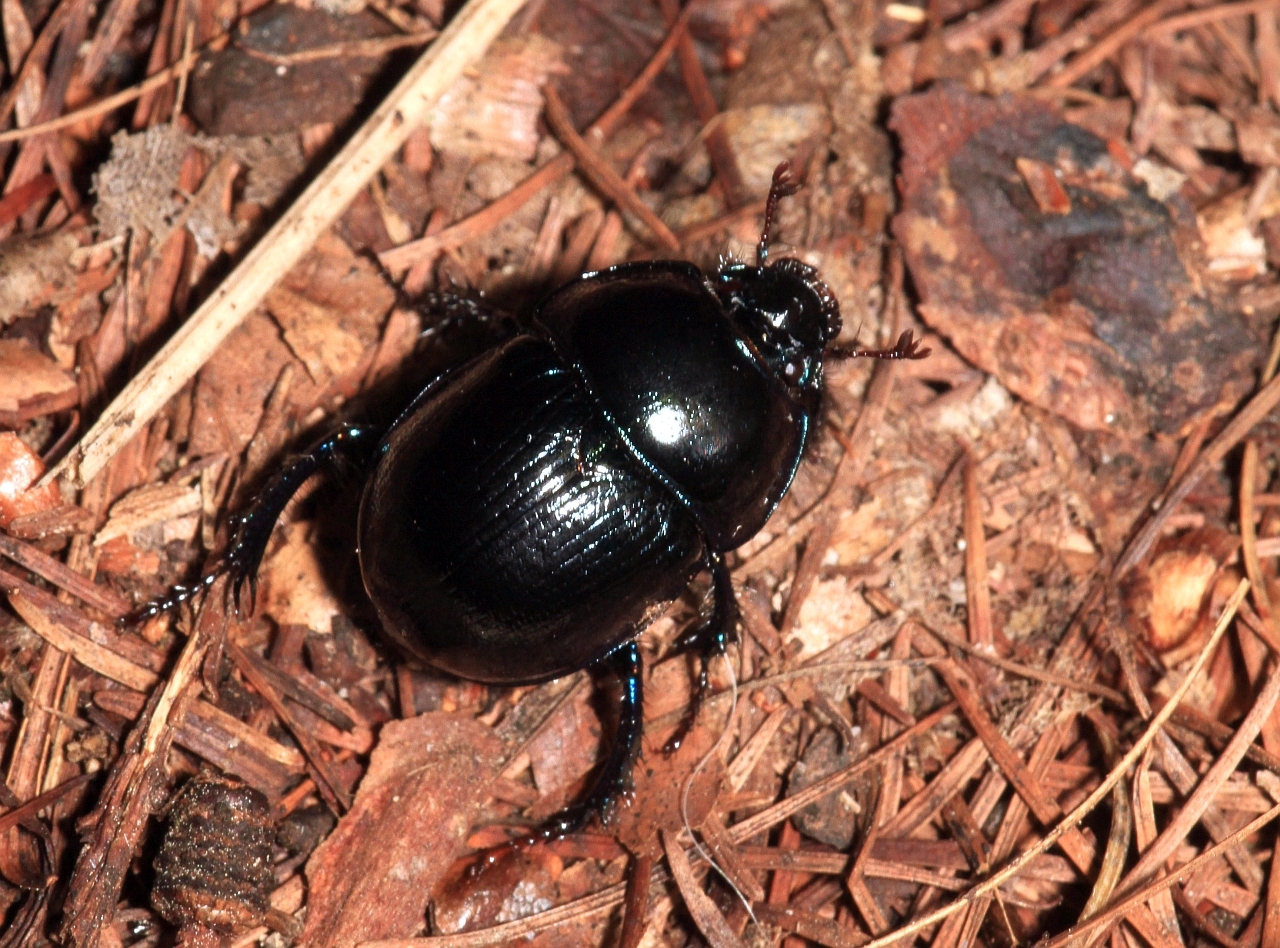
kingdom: Animalia
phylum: Arthropoda
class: Insecta
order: Coleoptera
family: Geotrupidae
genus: Anoplotrupes
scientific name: Anoplotrupes stercorosus
